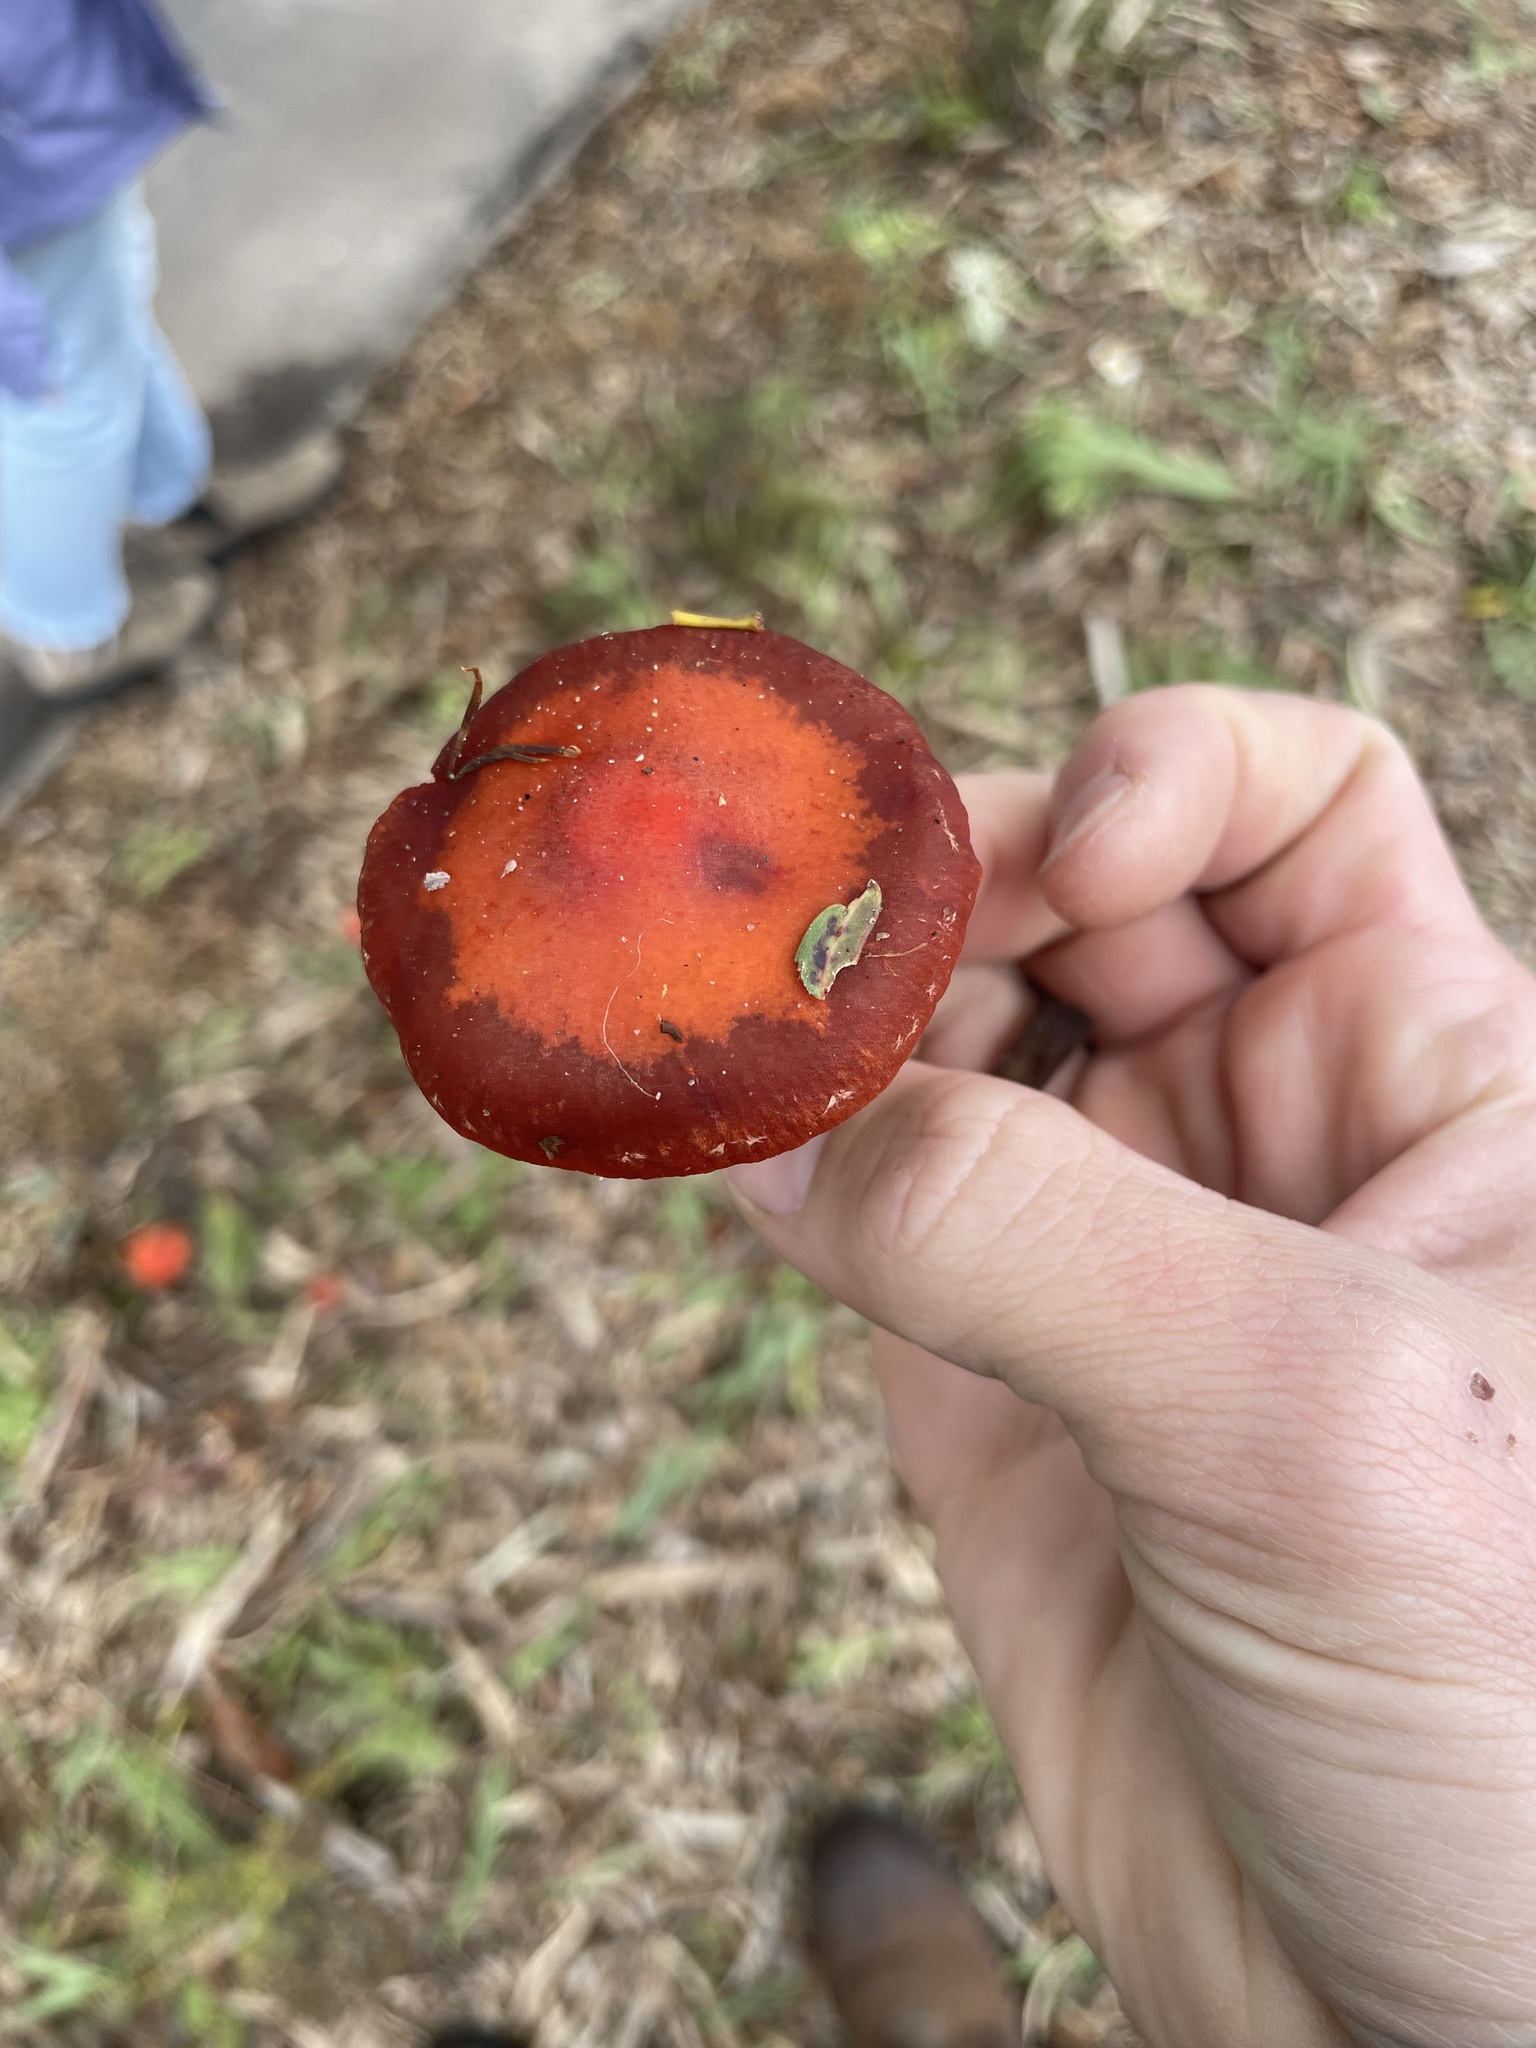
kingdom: Fungi
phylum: Basidiomycota
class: Agaricomycetes
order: Agaricales
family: Strophariaceae
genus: Leratiomyces
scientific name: Leratiomyces ceres
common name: Redlead roundhead
